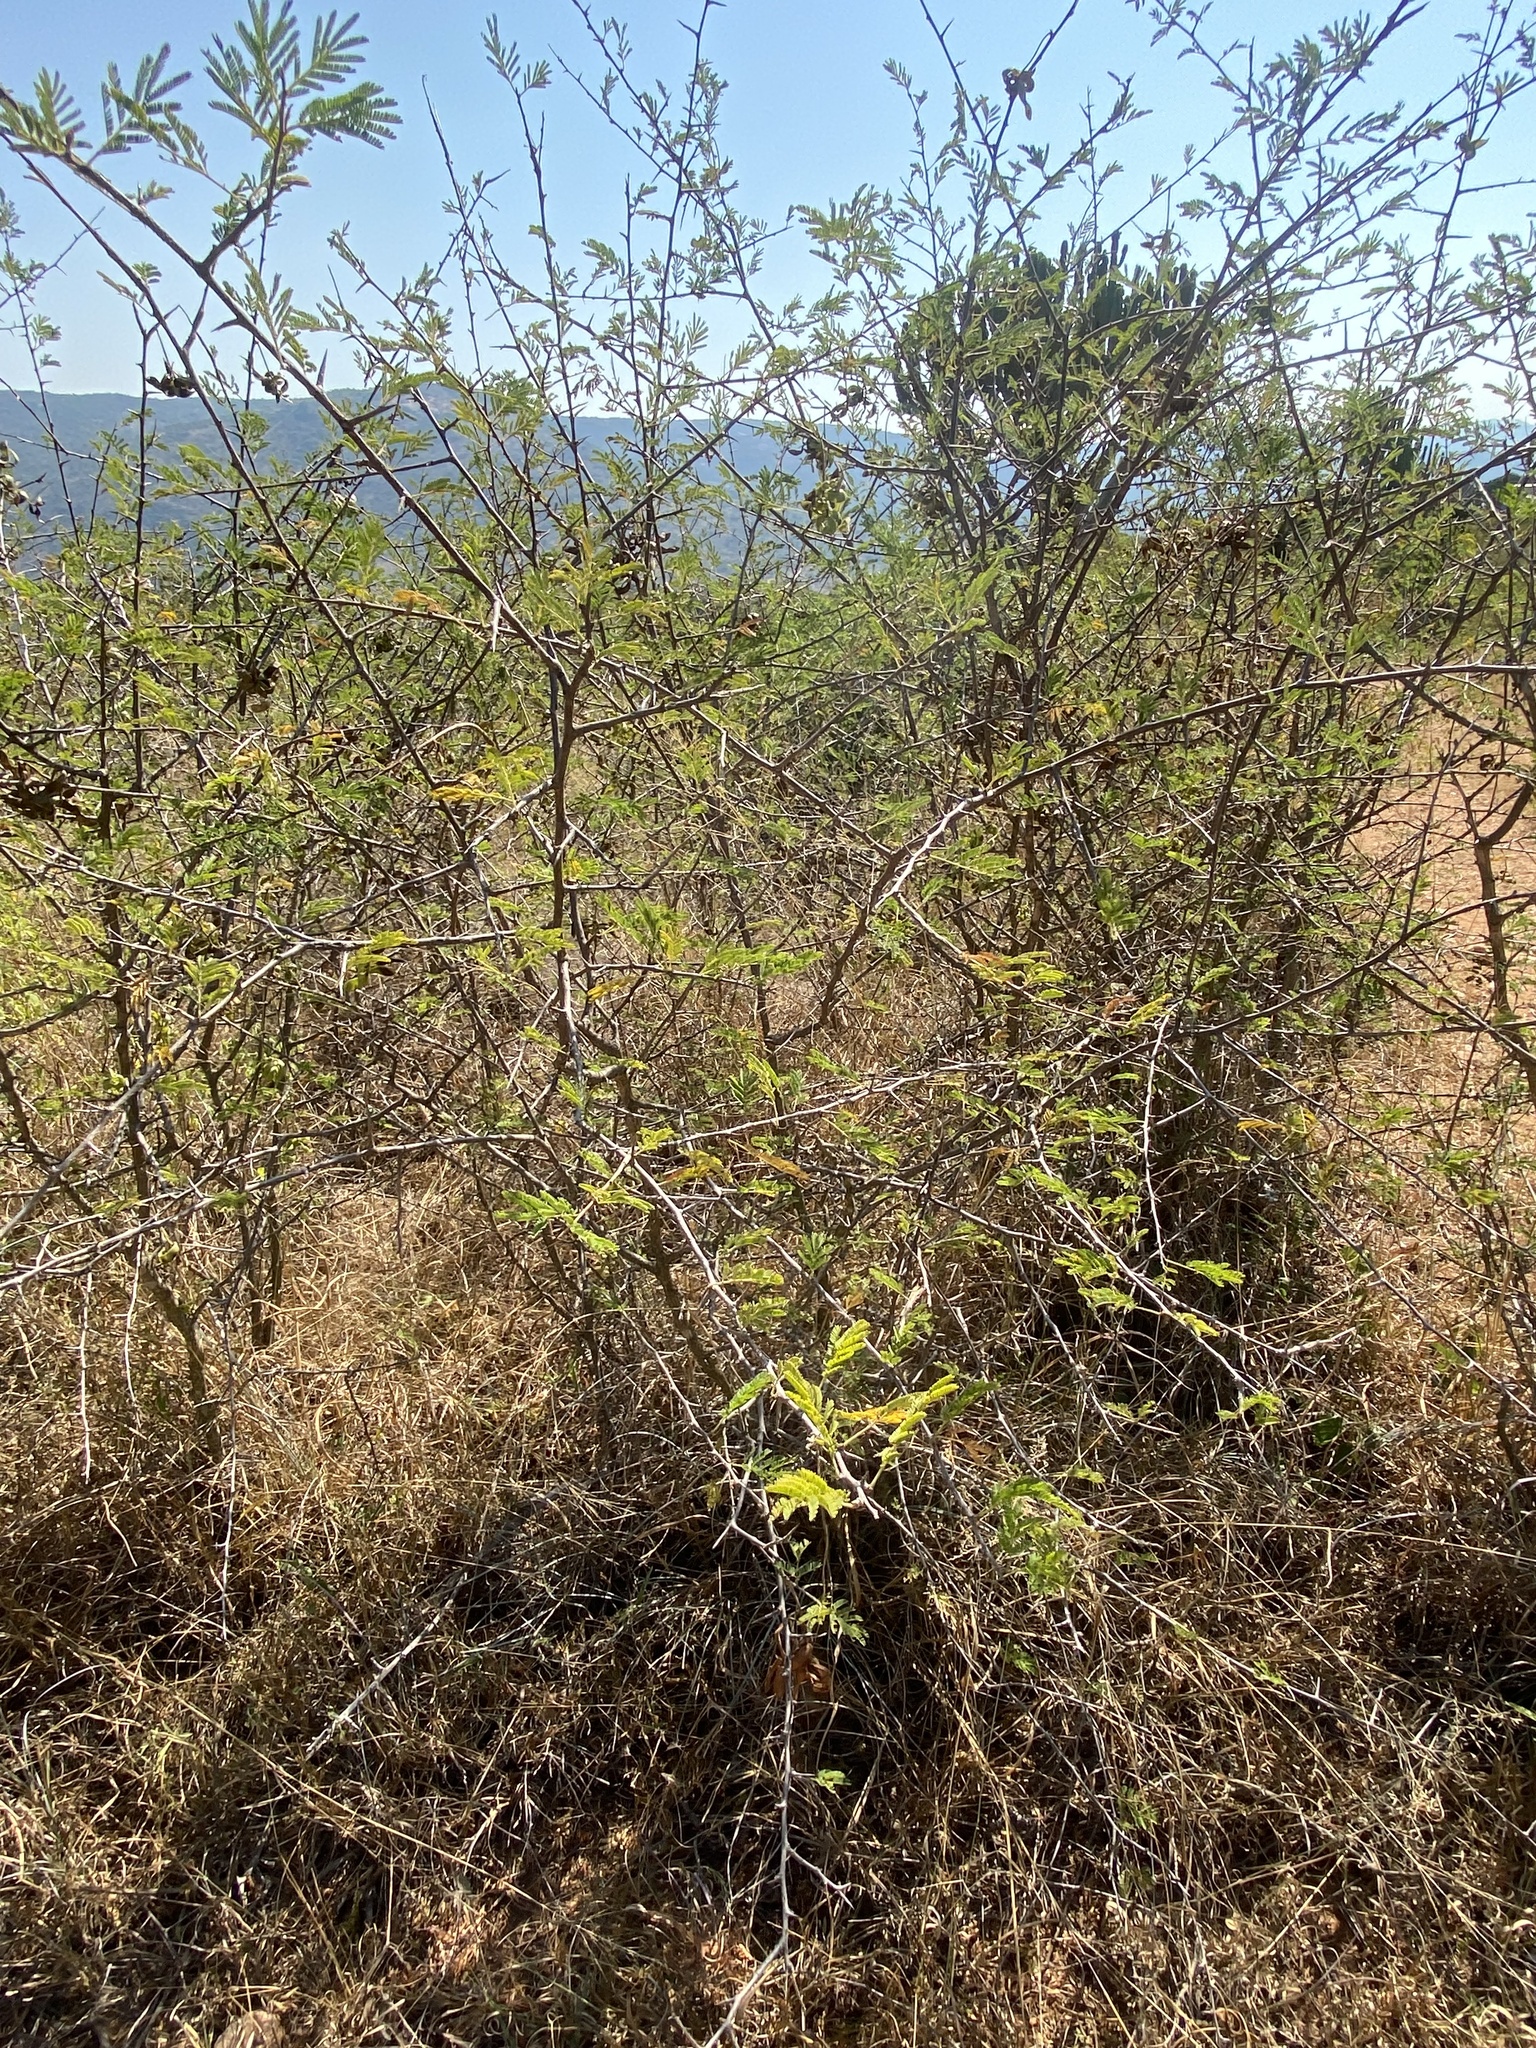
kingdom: Plantae
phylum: Tracheophyta
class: Magnoliopsida
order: Fabales
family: Fabaceae
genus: Dichrostachys
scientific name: Dichrostachys cinerea
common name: Sicklebush
